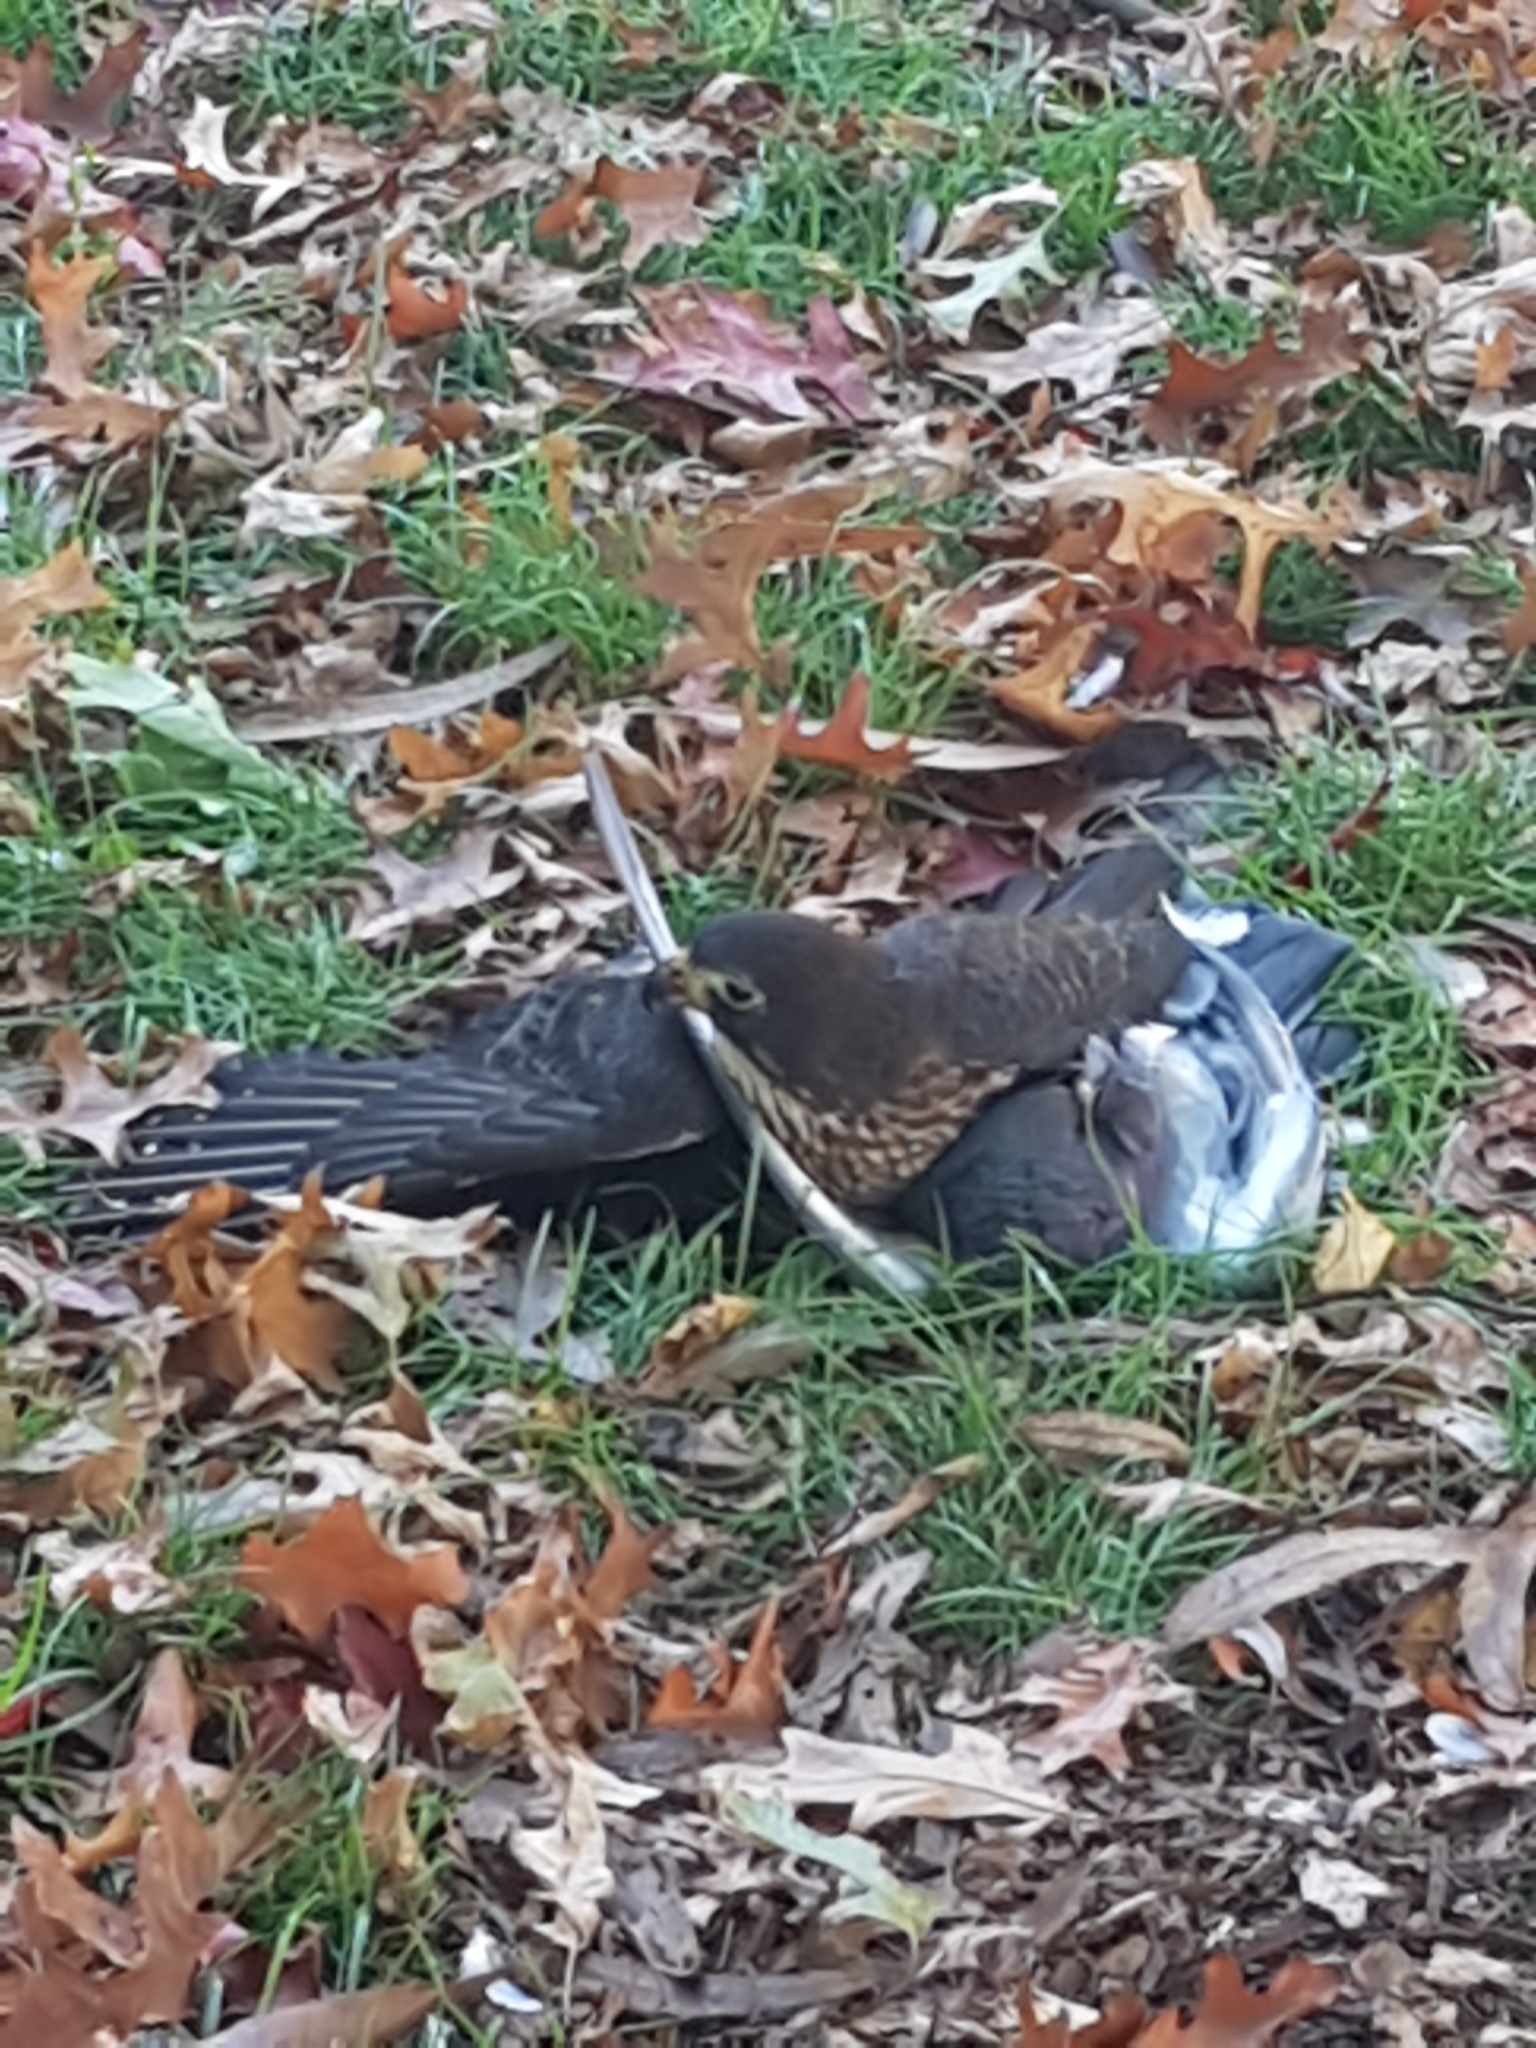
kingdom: Animalia
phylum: Chordata
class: Aves
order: Falconiformes
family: Falconidae
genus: Falco
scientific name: Falco novaeseelandiae
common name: New zealand falcon
